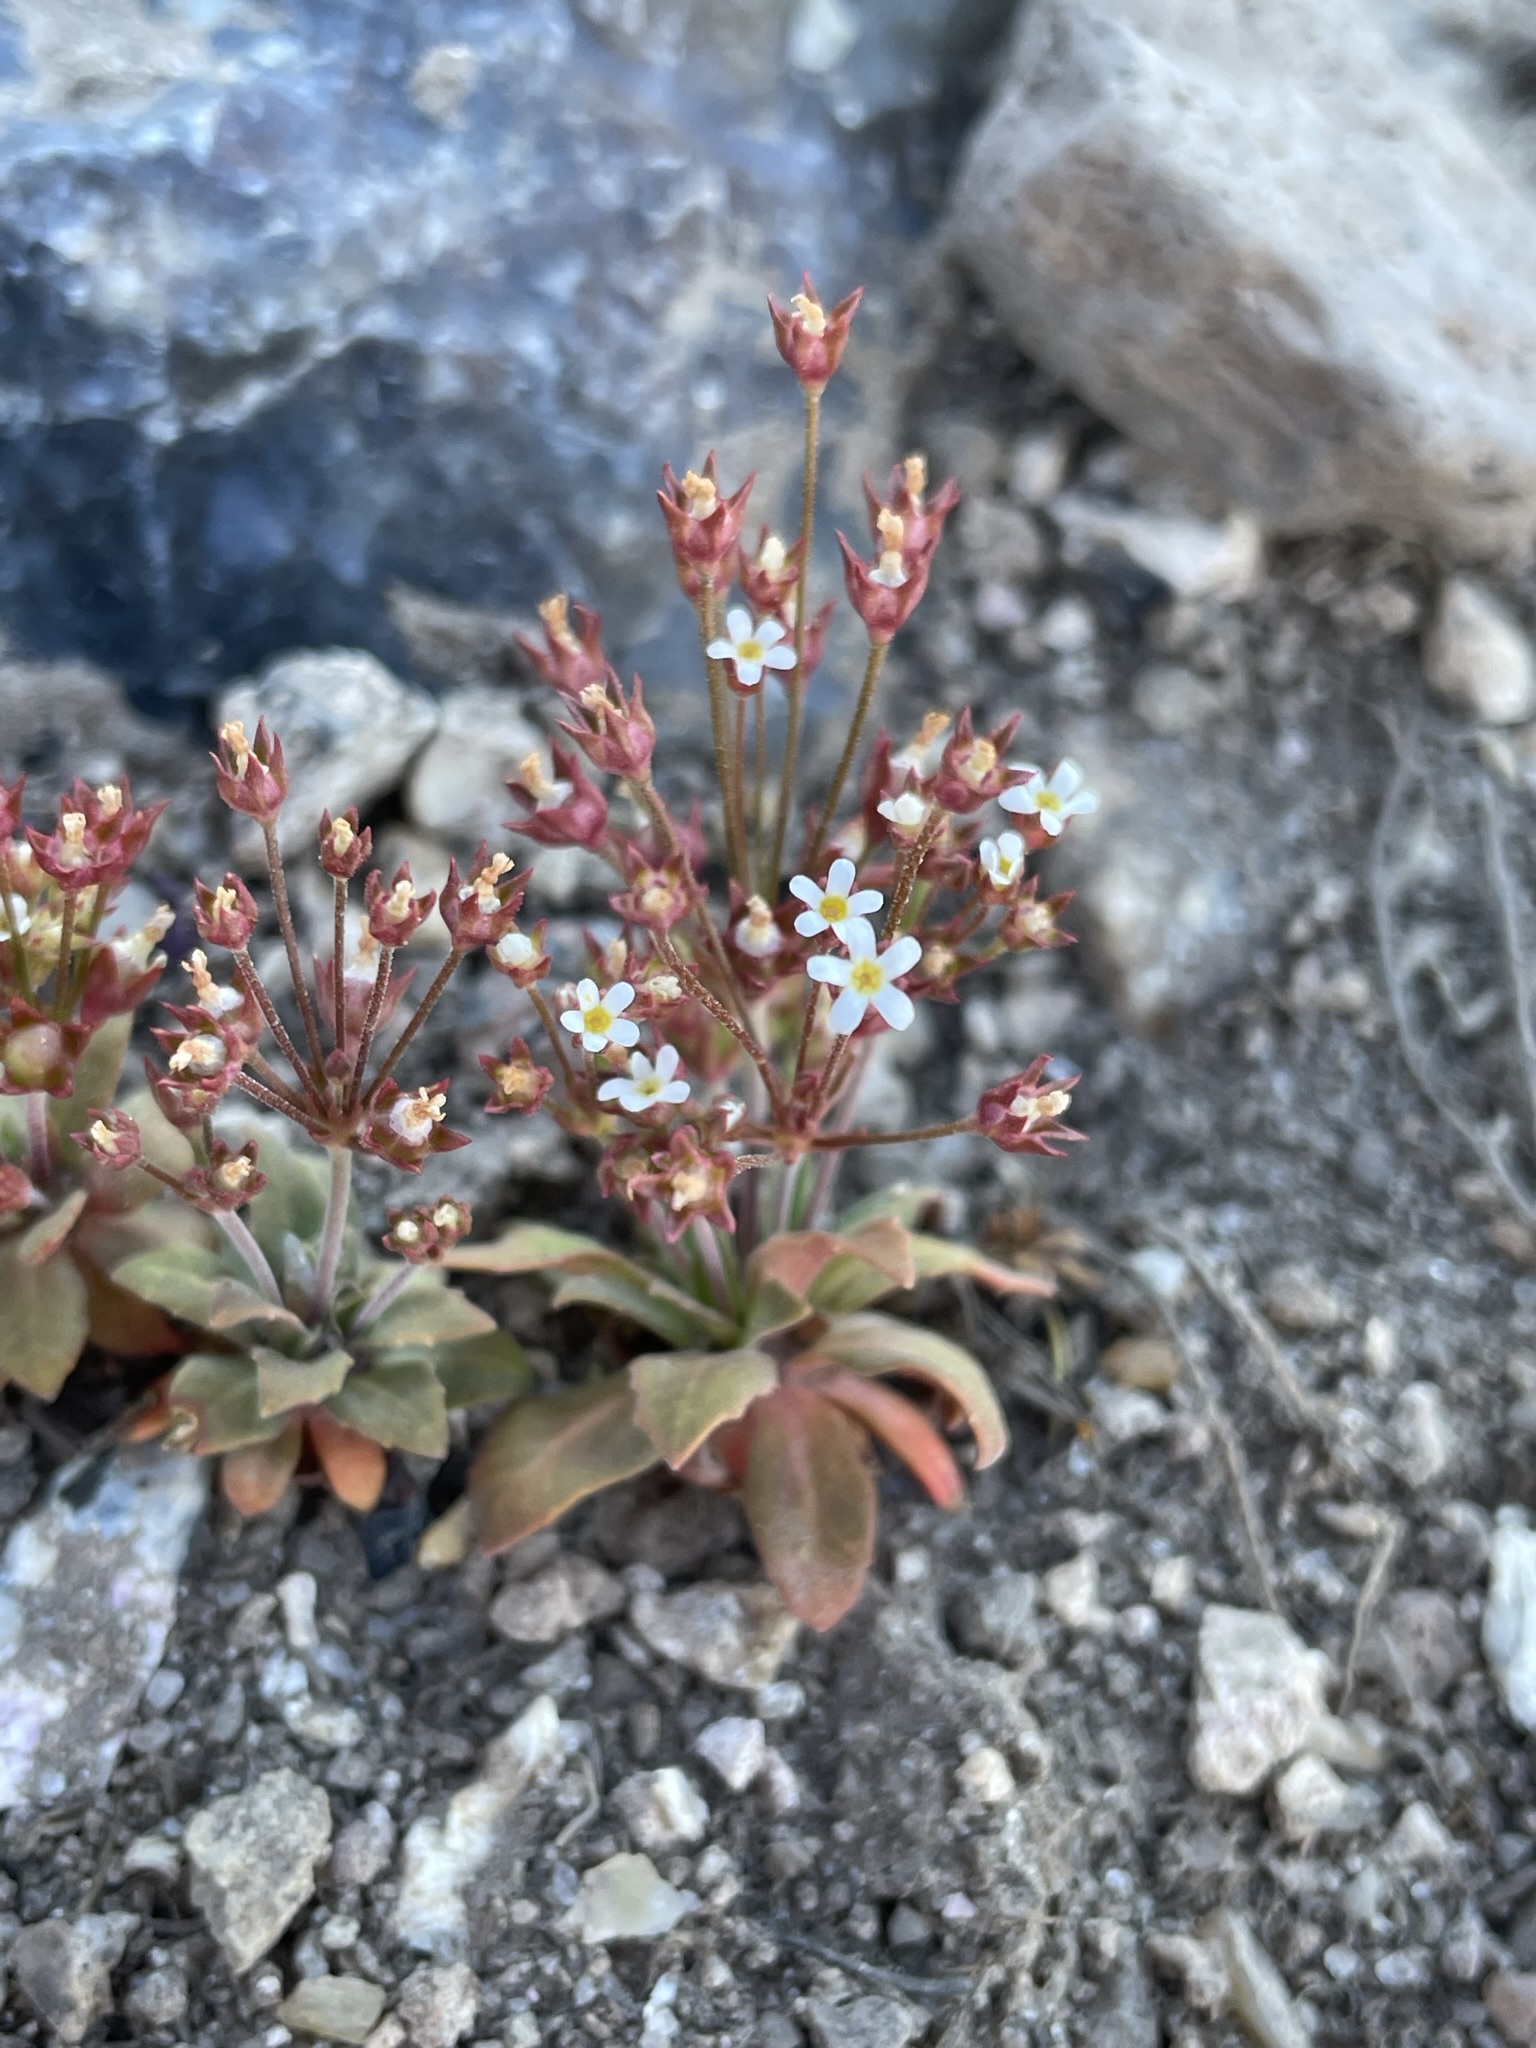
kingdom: Plantae
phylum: Tracheophyta
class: Magnoliopsida
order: Ericales
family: Primulaceae
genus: Androsace
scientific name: Androsace septentrionalis
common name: Hairy northern fairy-candelabra
